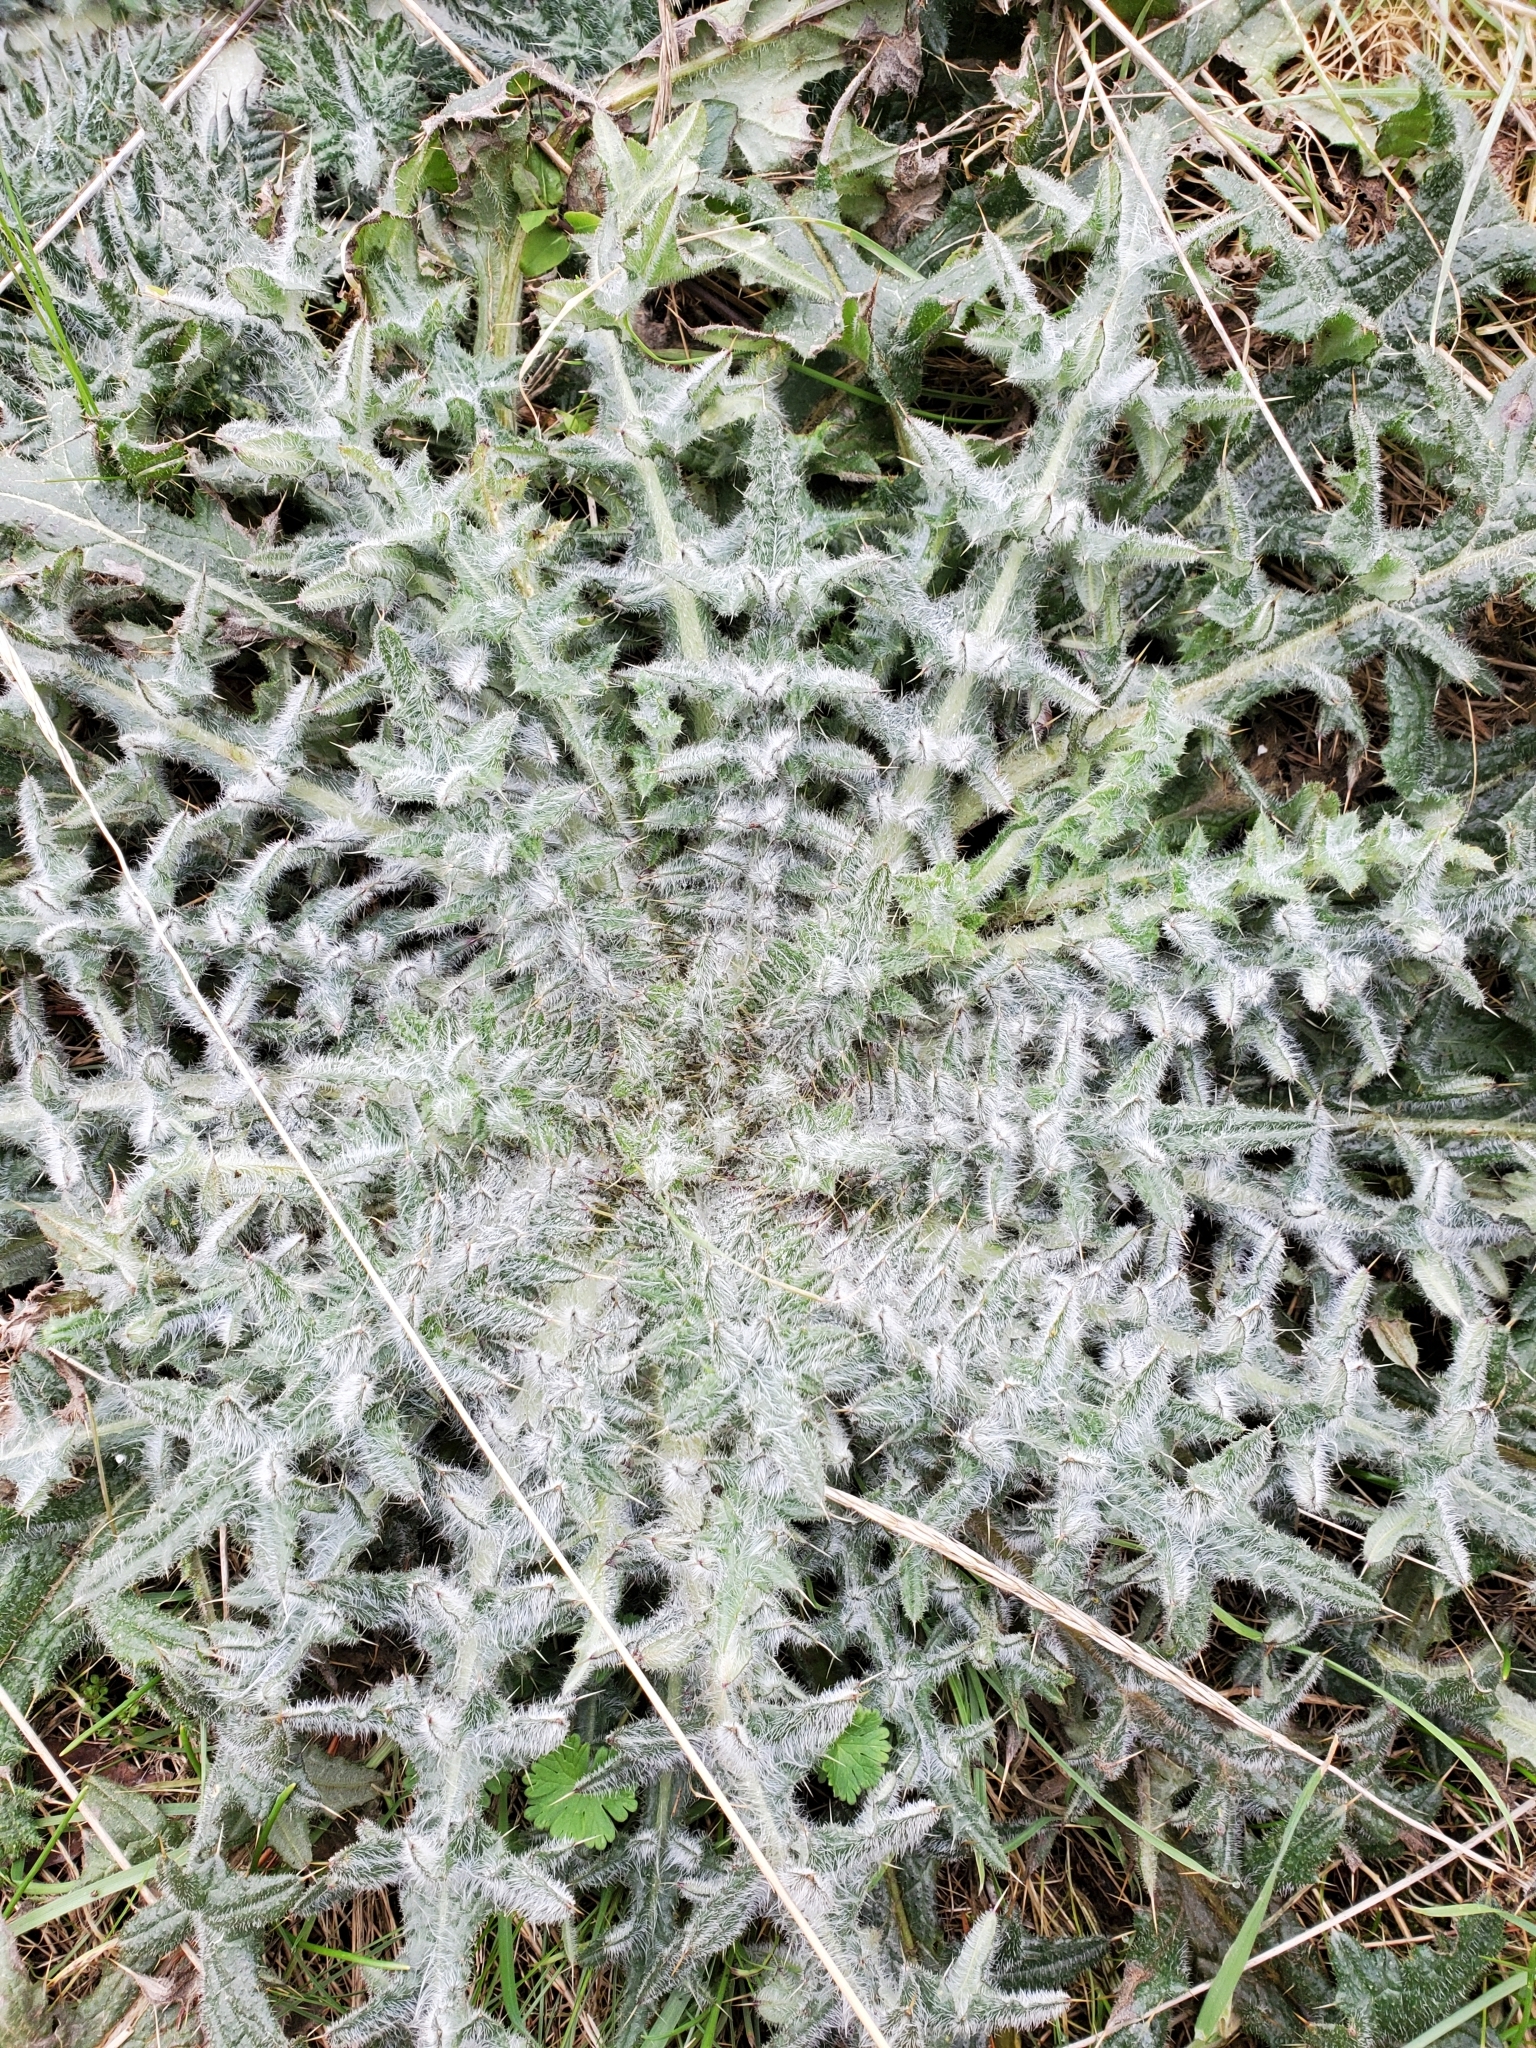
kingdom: Plantae
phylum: Tracheophyta
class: Magnoliopsida
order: Asterales
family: Asteraceae
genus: Cirsium
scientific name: Cirsium vulgare
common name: Bull thistle
